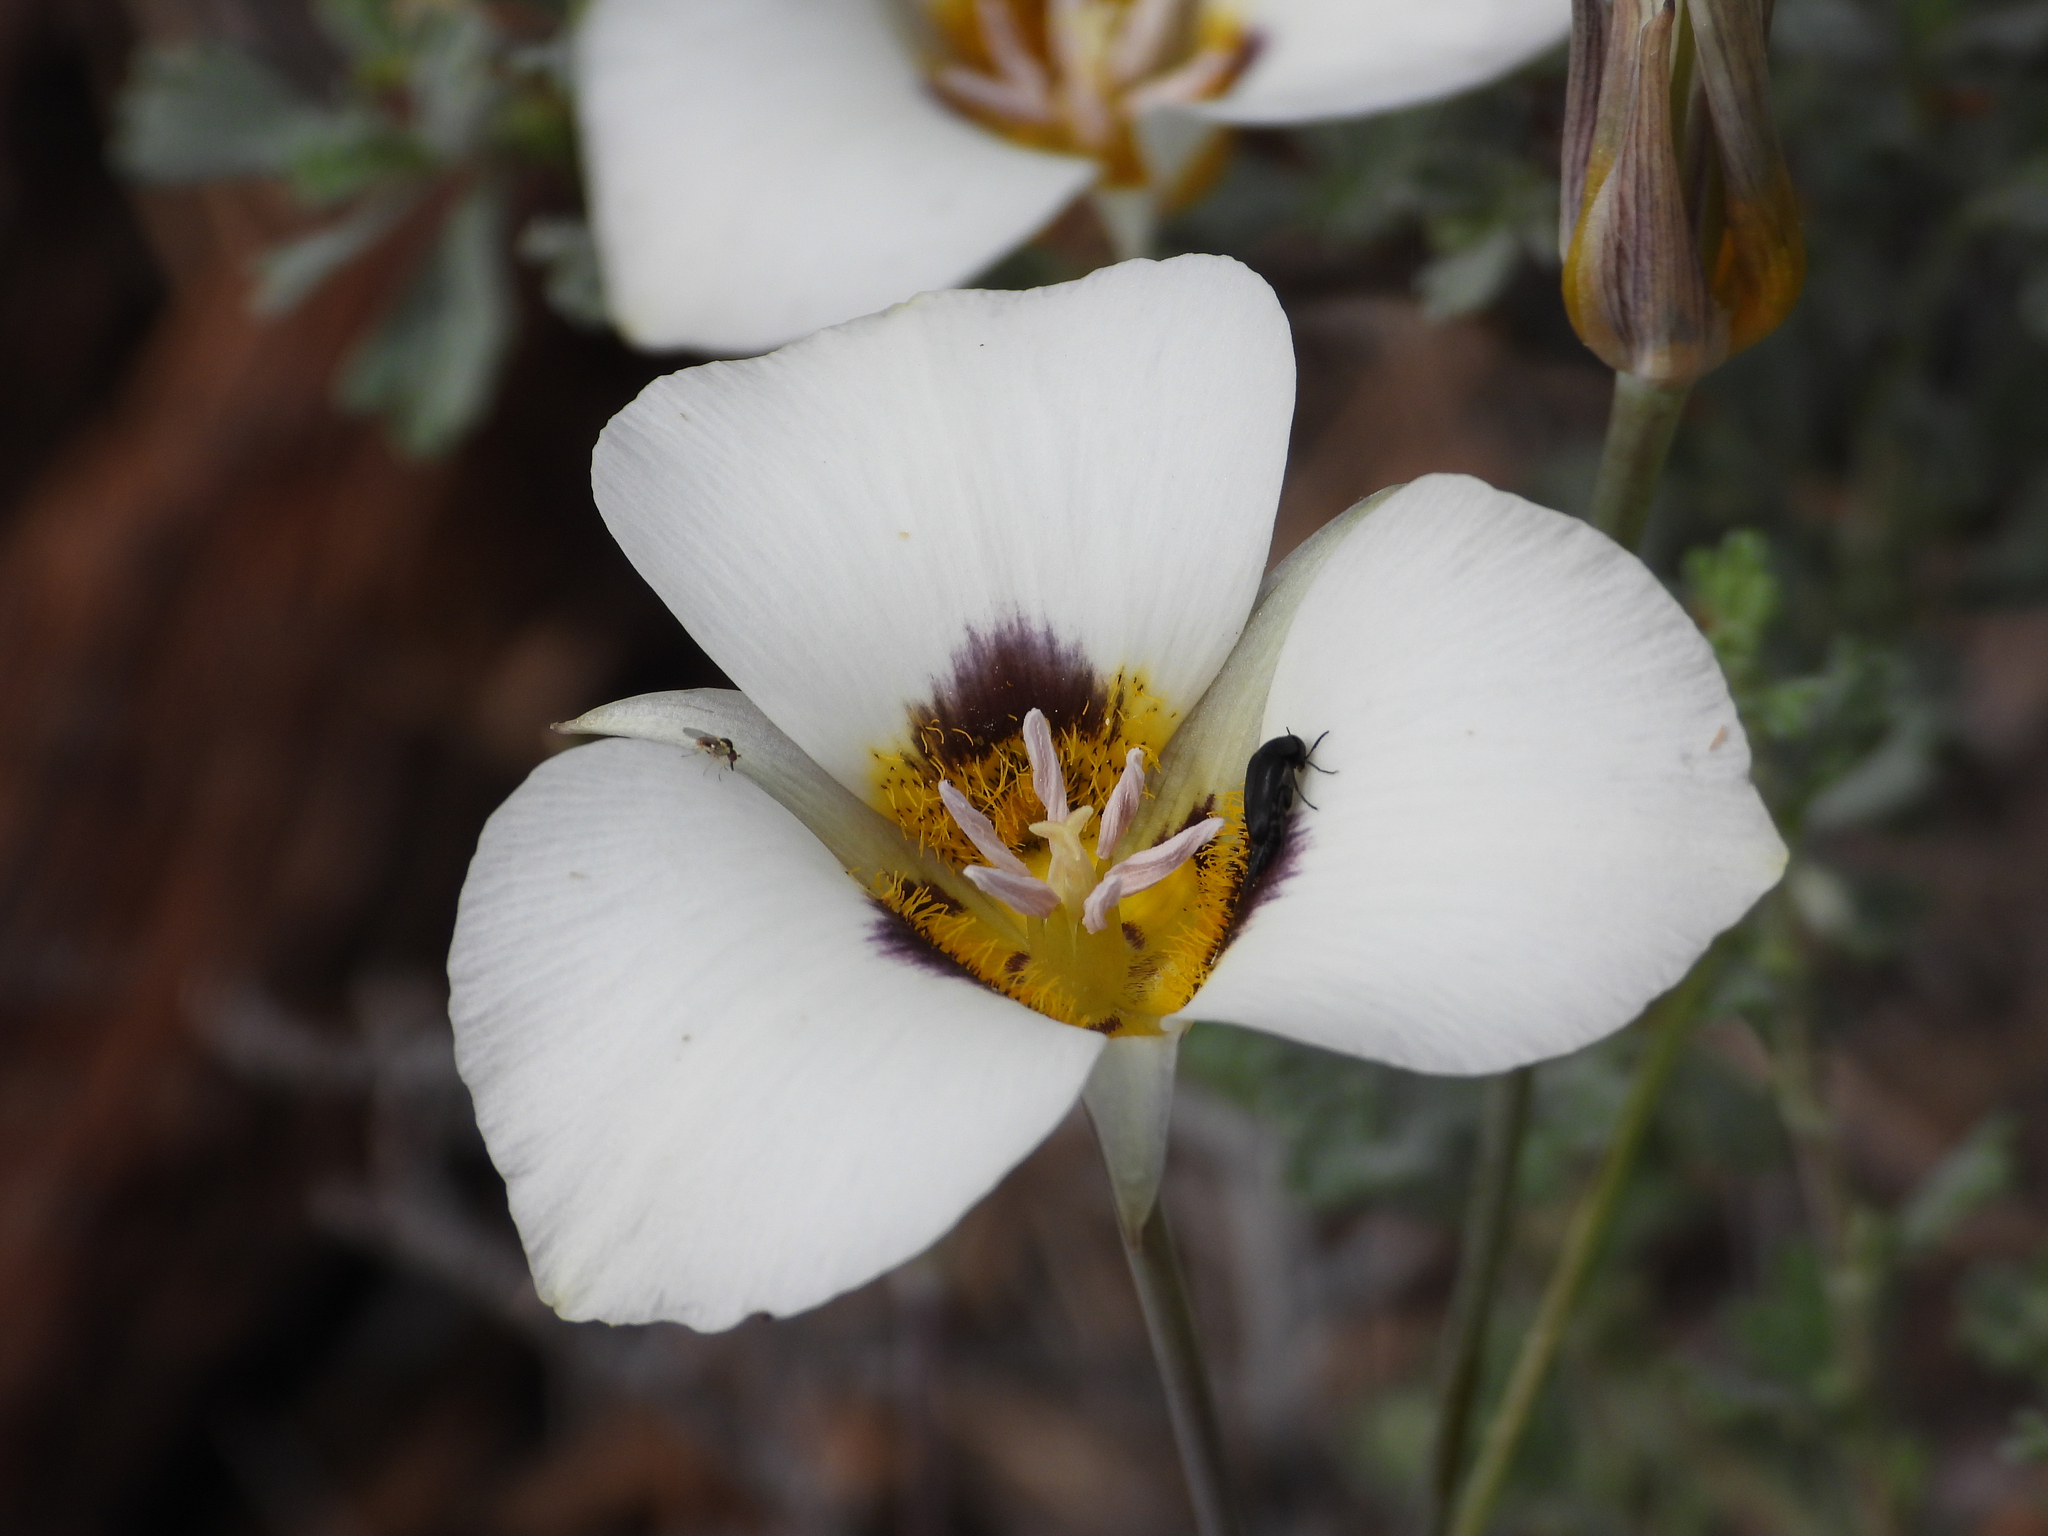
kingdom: Plantae
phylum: Tracheophyta
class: Liliopsida
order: Liliales
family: Liliaceae
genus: Calochortus
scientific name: Calochortus leichtlinii
